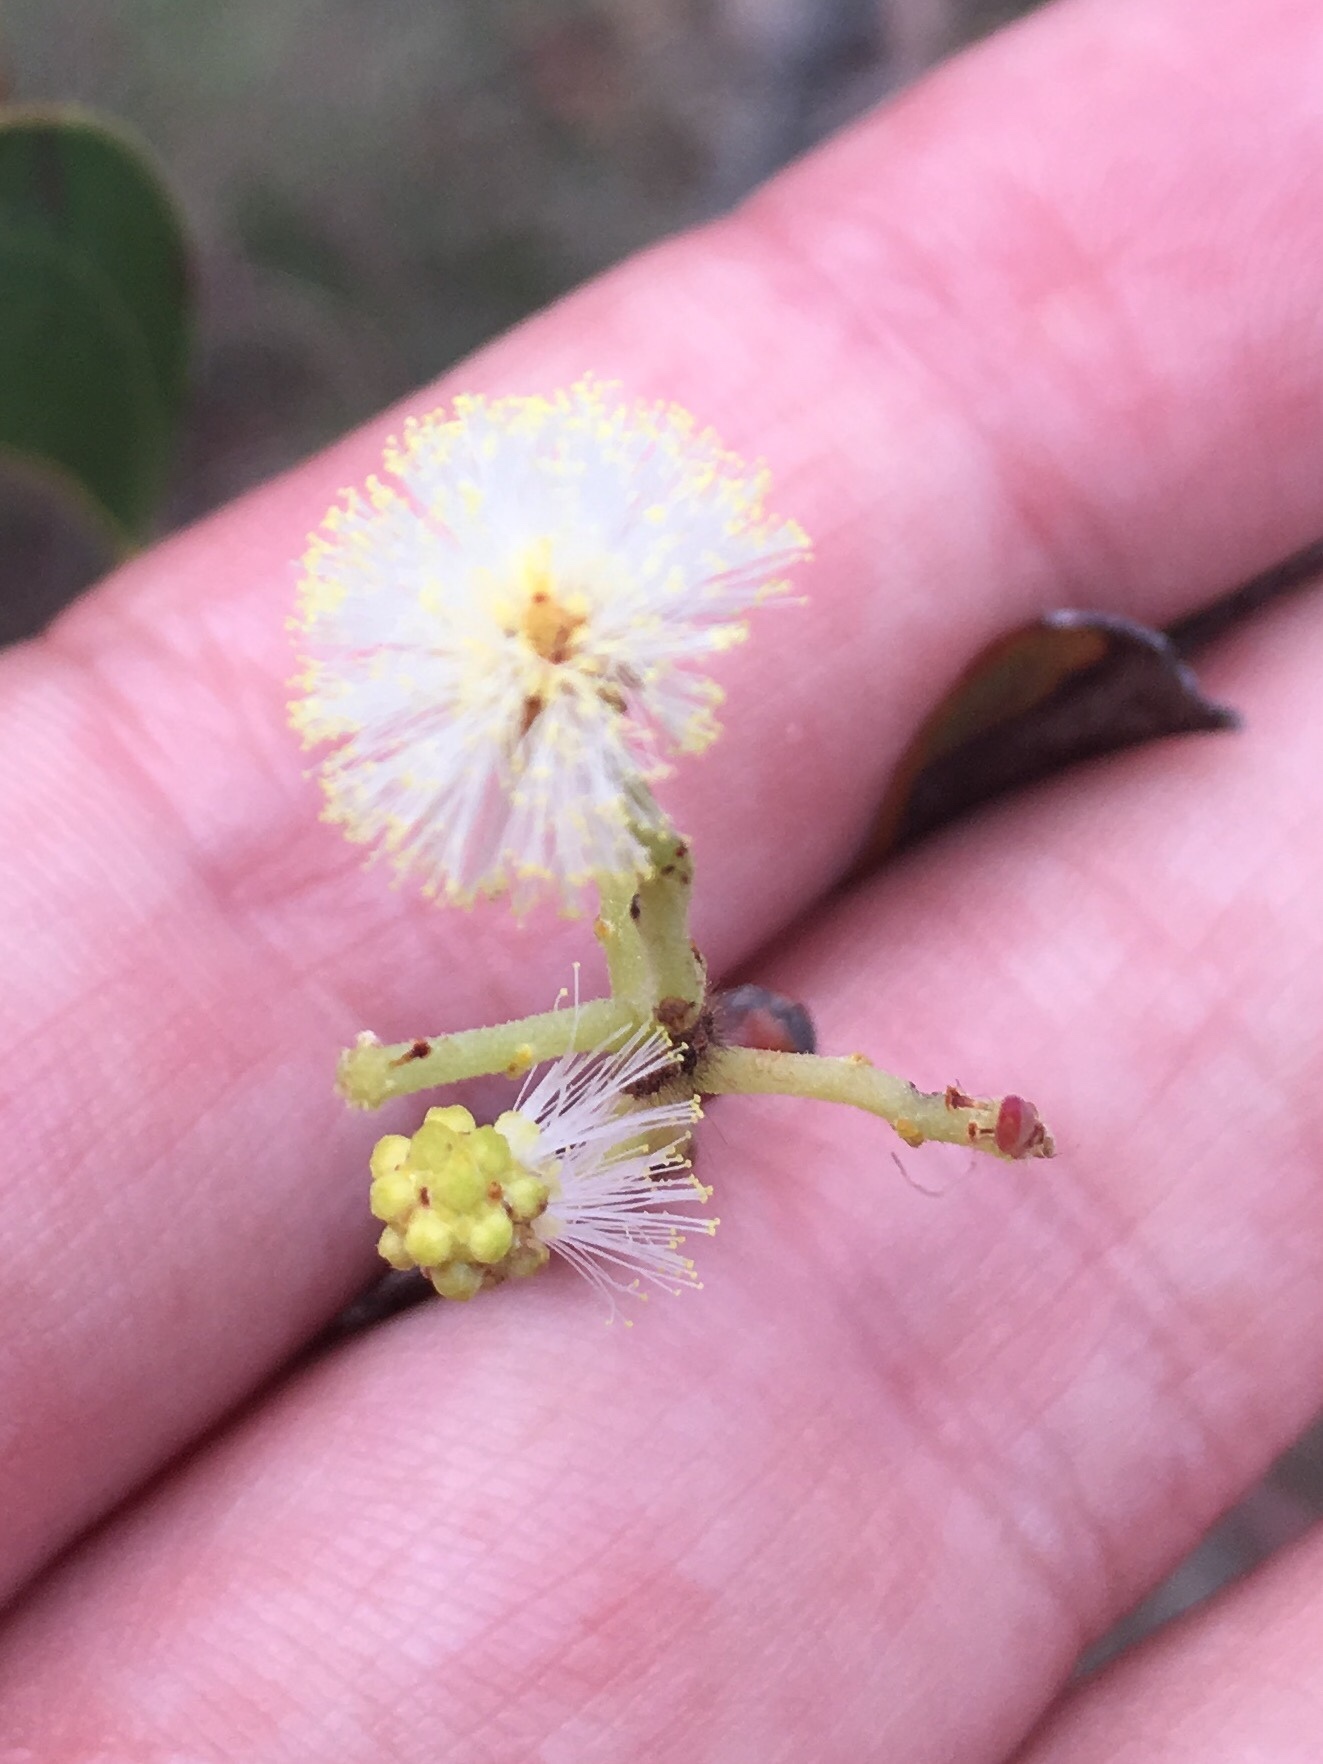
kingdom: Plantae
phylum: Tracheophyta
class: Magnoliopsida
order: Fabales
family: Fabaceae
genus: Acacia
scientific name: Acacia falcata
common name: Burra acacia
